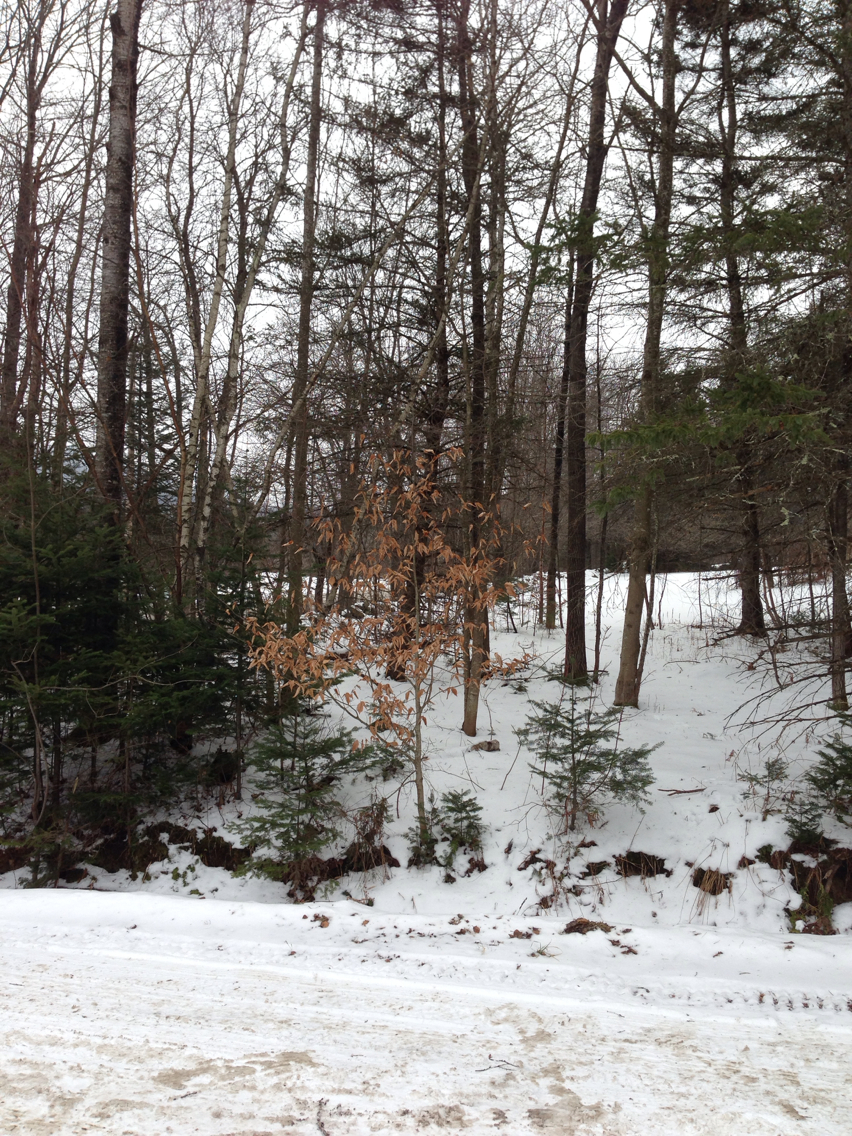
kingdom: Plantae
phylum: Tracheophyta
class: Magnoliopsida
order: Fagales
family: Fagaceae
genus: Fagus
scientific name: Fagus grandifolia
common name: American beech
